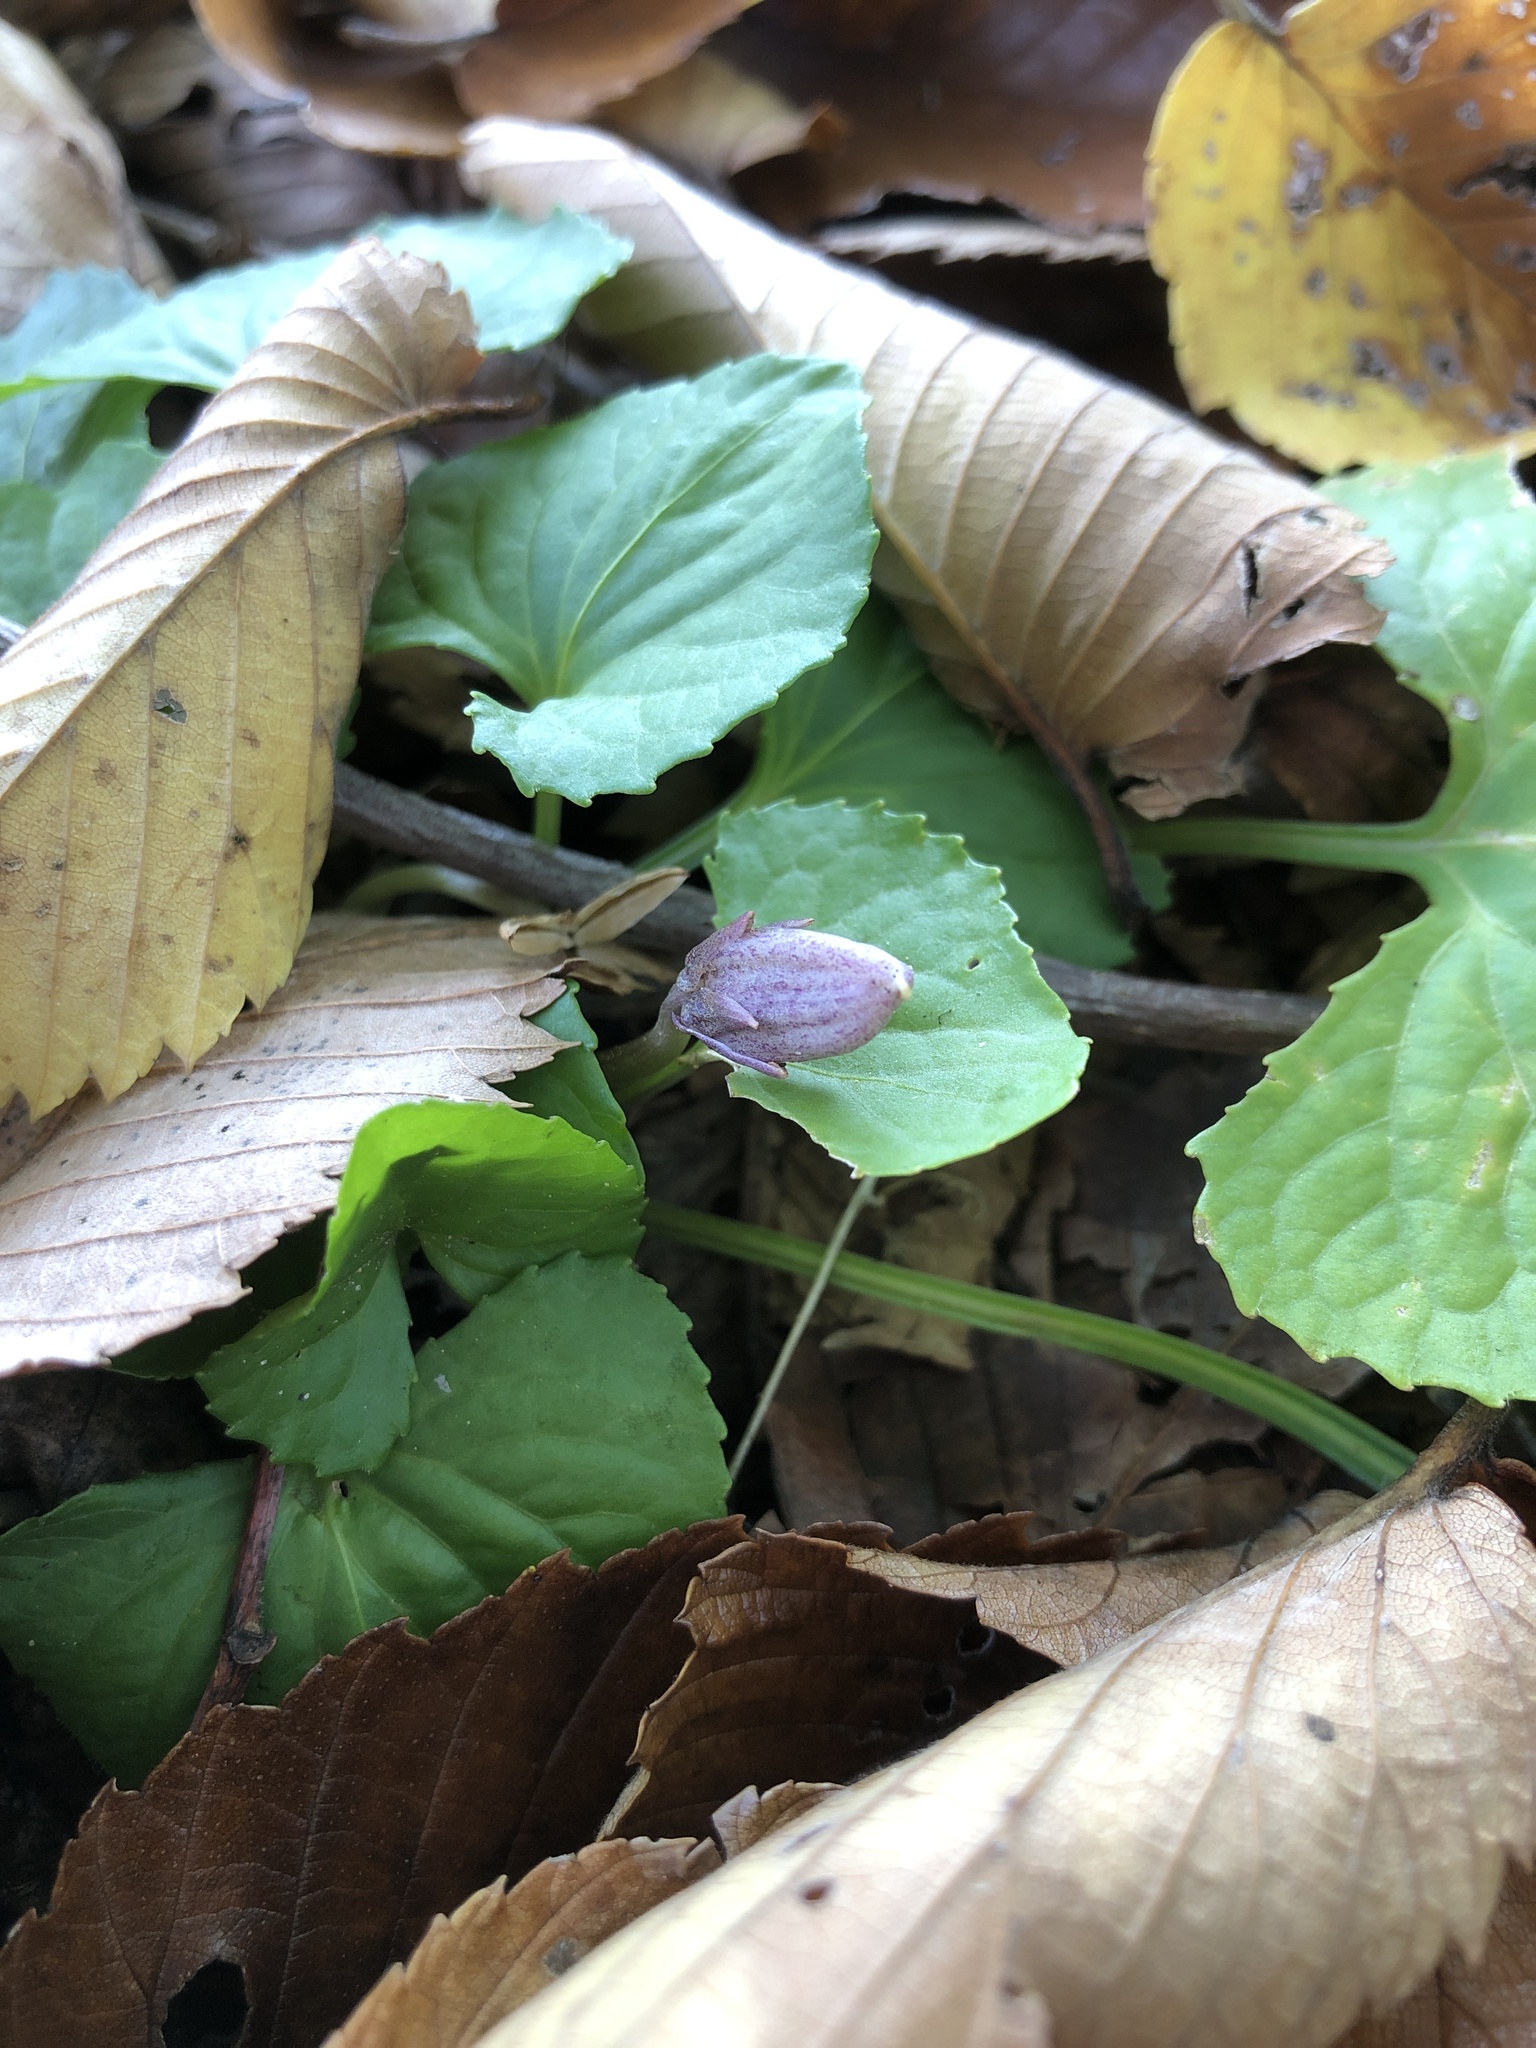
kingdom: Plantae
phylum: Tracheophyta
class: Magnoliopsida
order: Malpighiales
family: Violaceae
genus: Viola
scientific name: Viola sororia
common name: Dooryard violet
